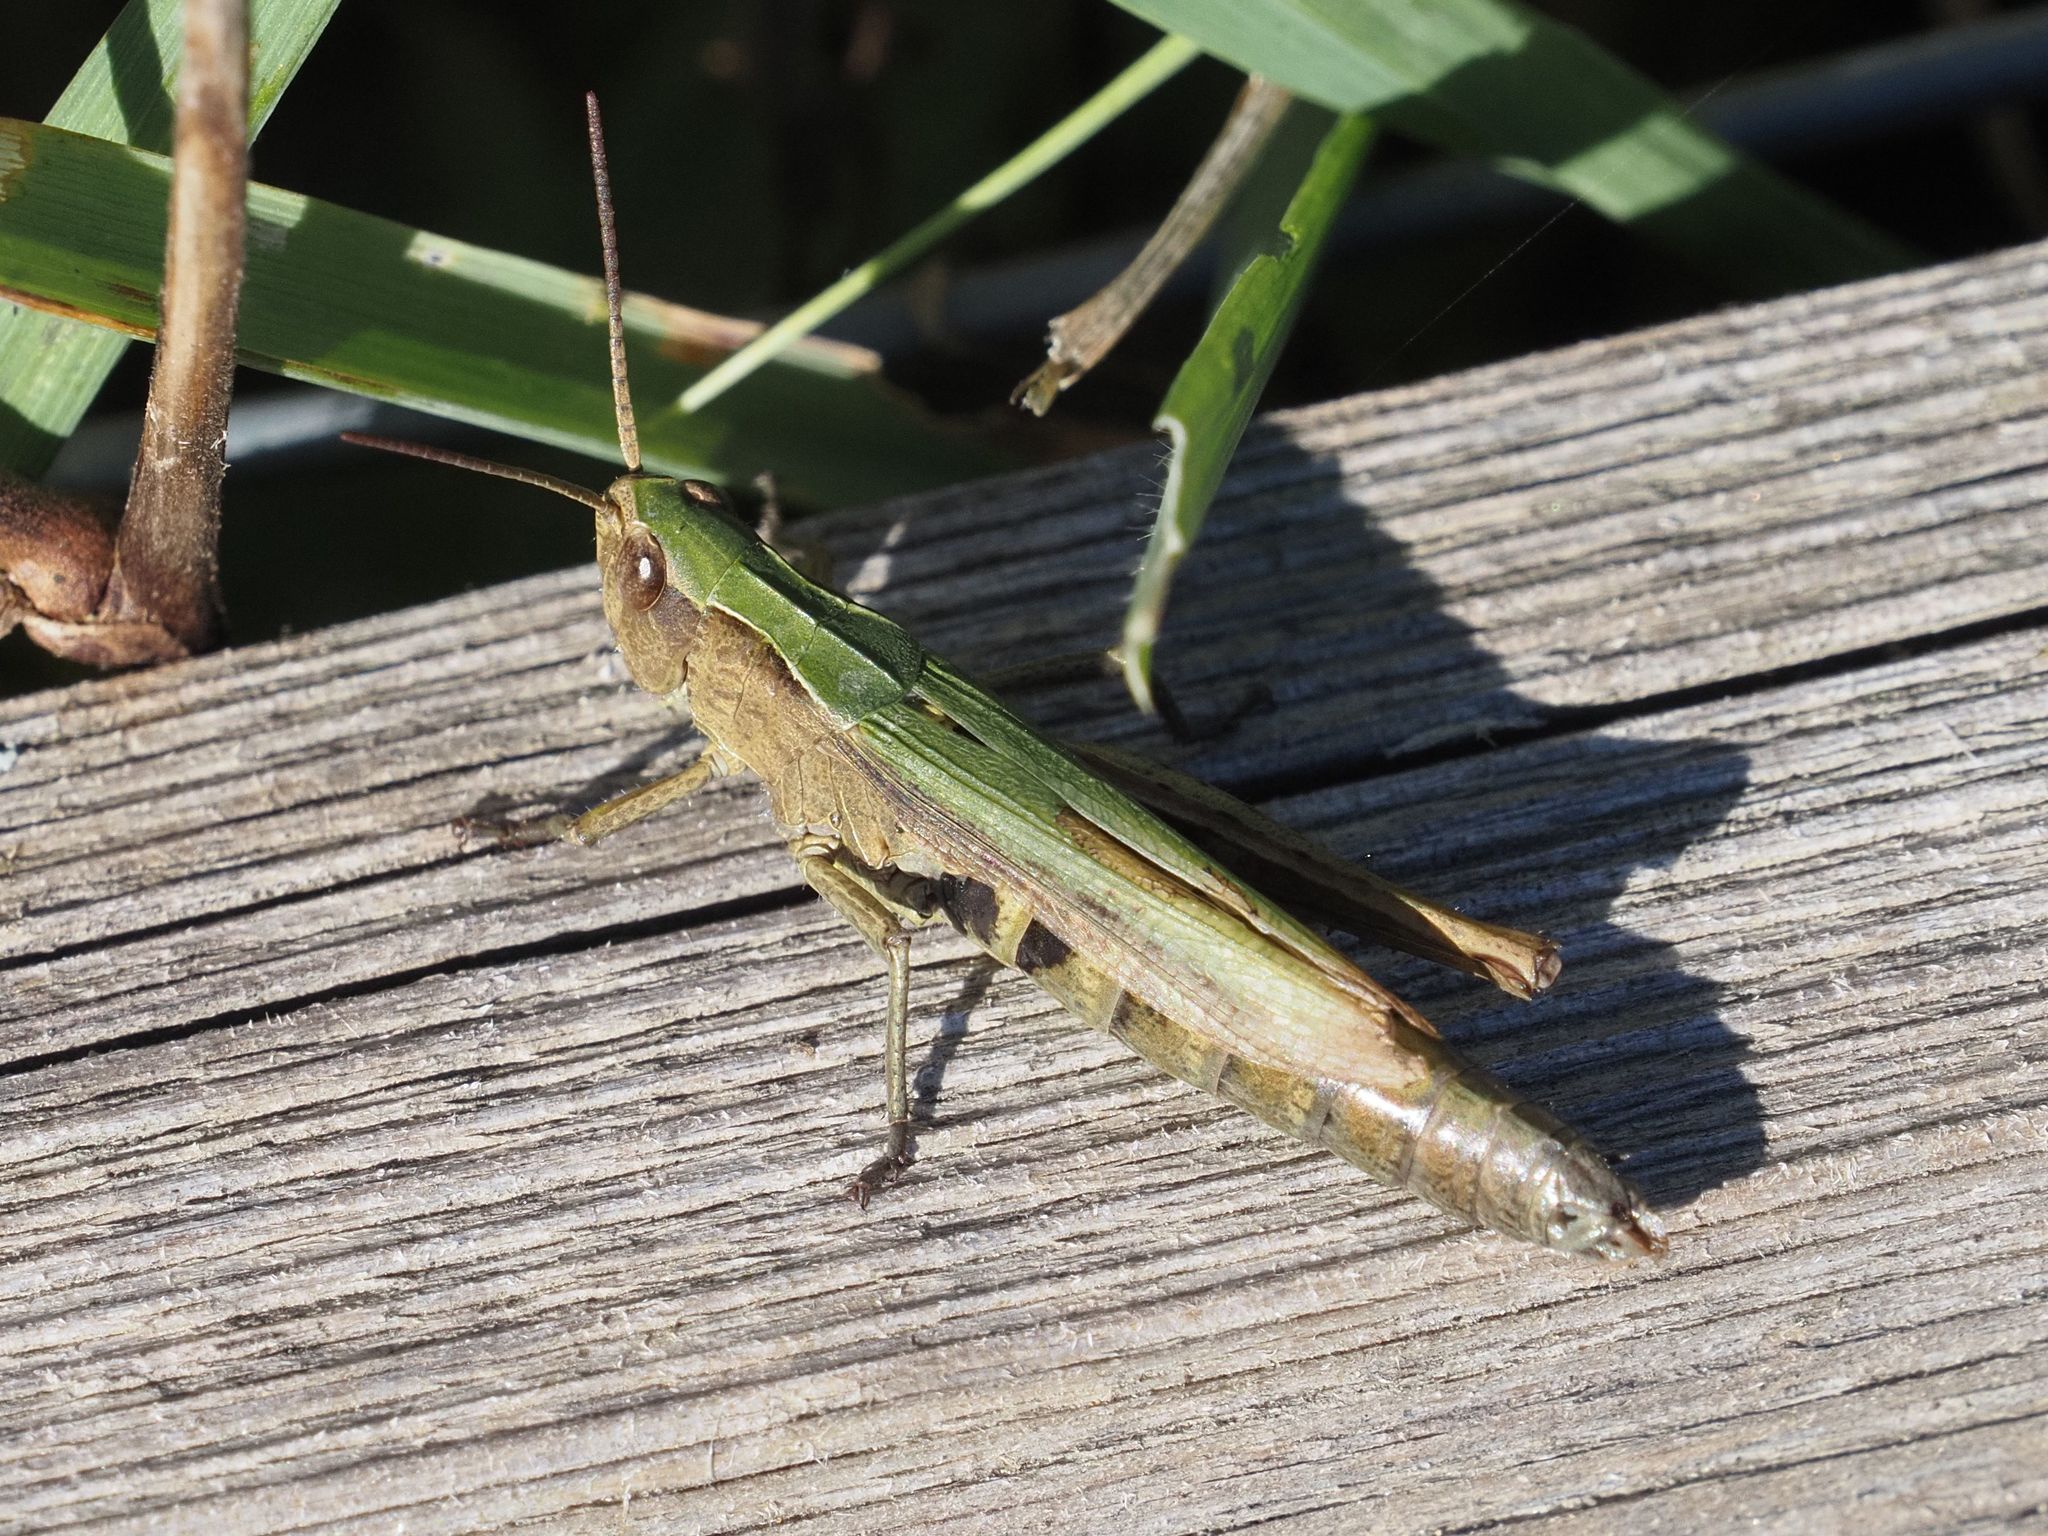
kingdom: Animalia
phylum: Arthropoda
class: Insecta
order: Orthoptera
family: Acrididae
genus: Chorthippus
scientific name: Chorthippus dorsatus
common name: Steppe grasshopper
